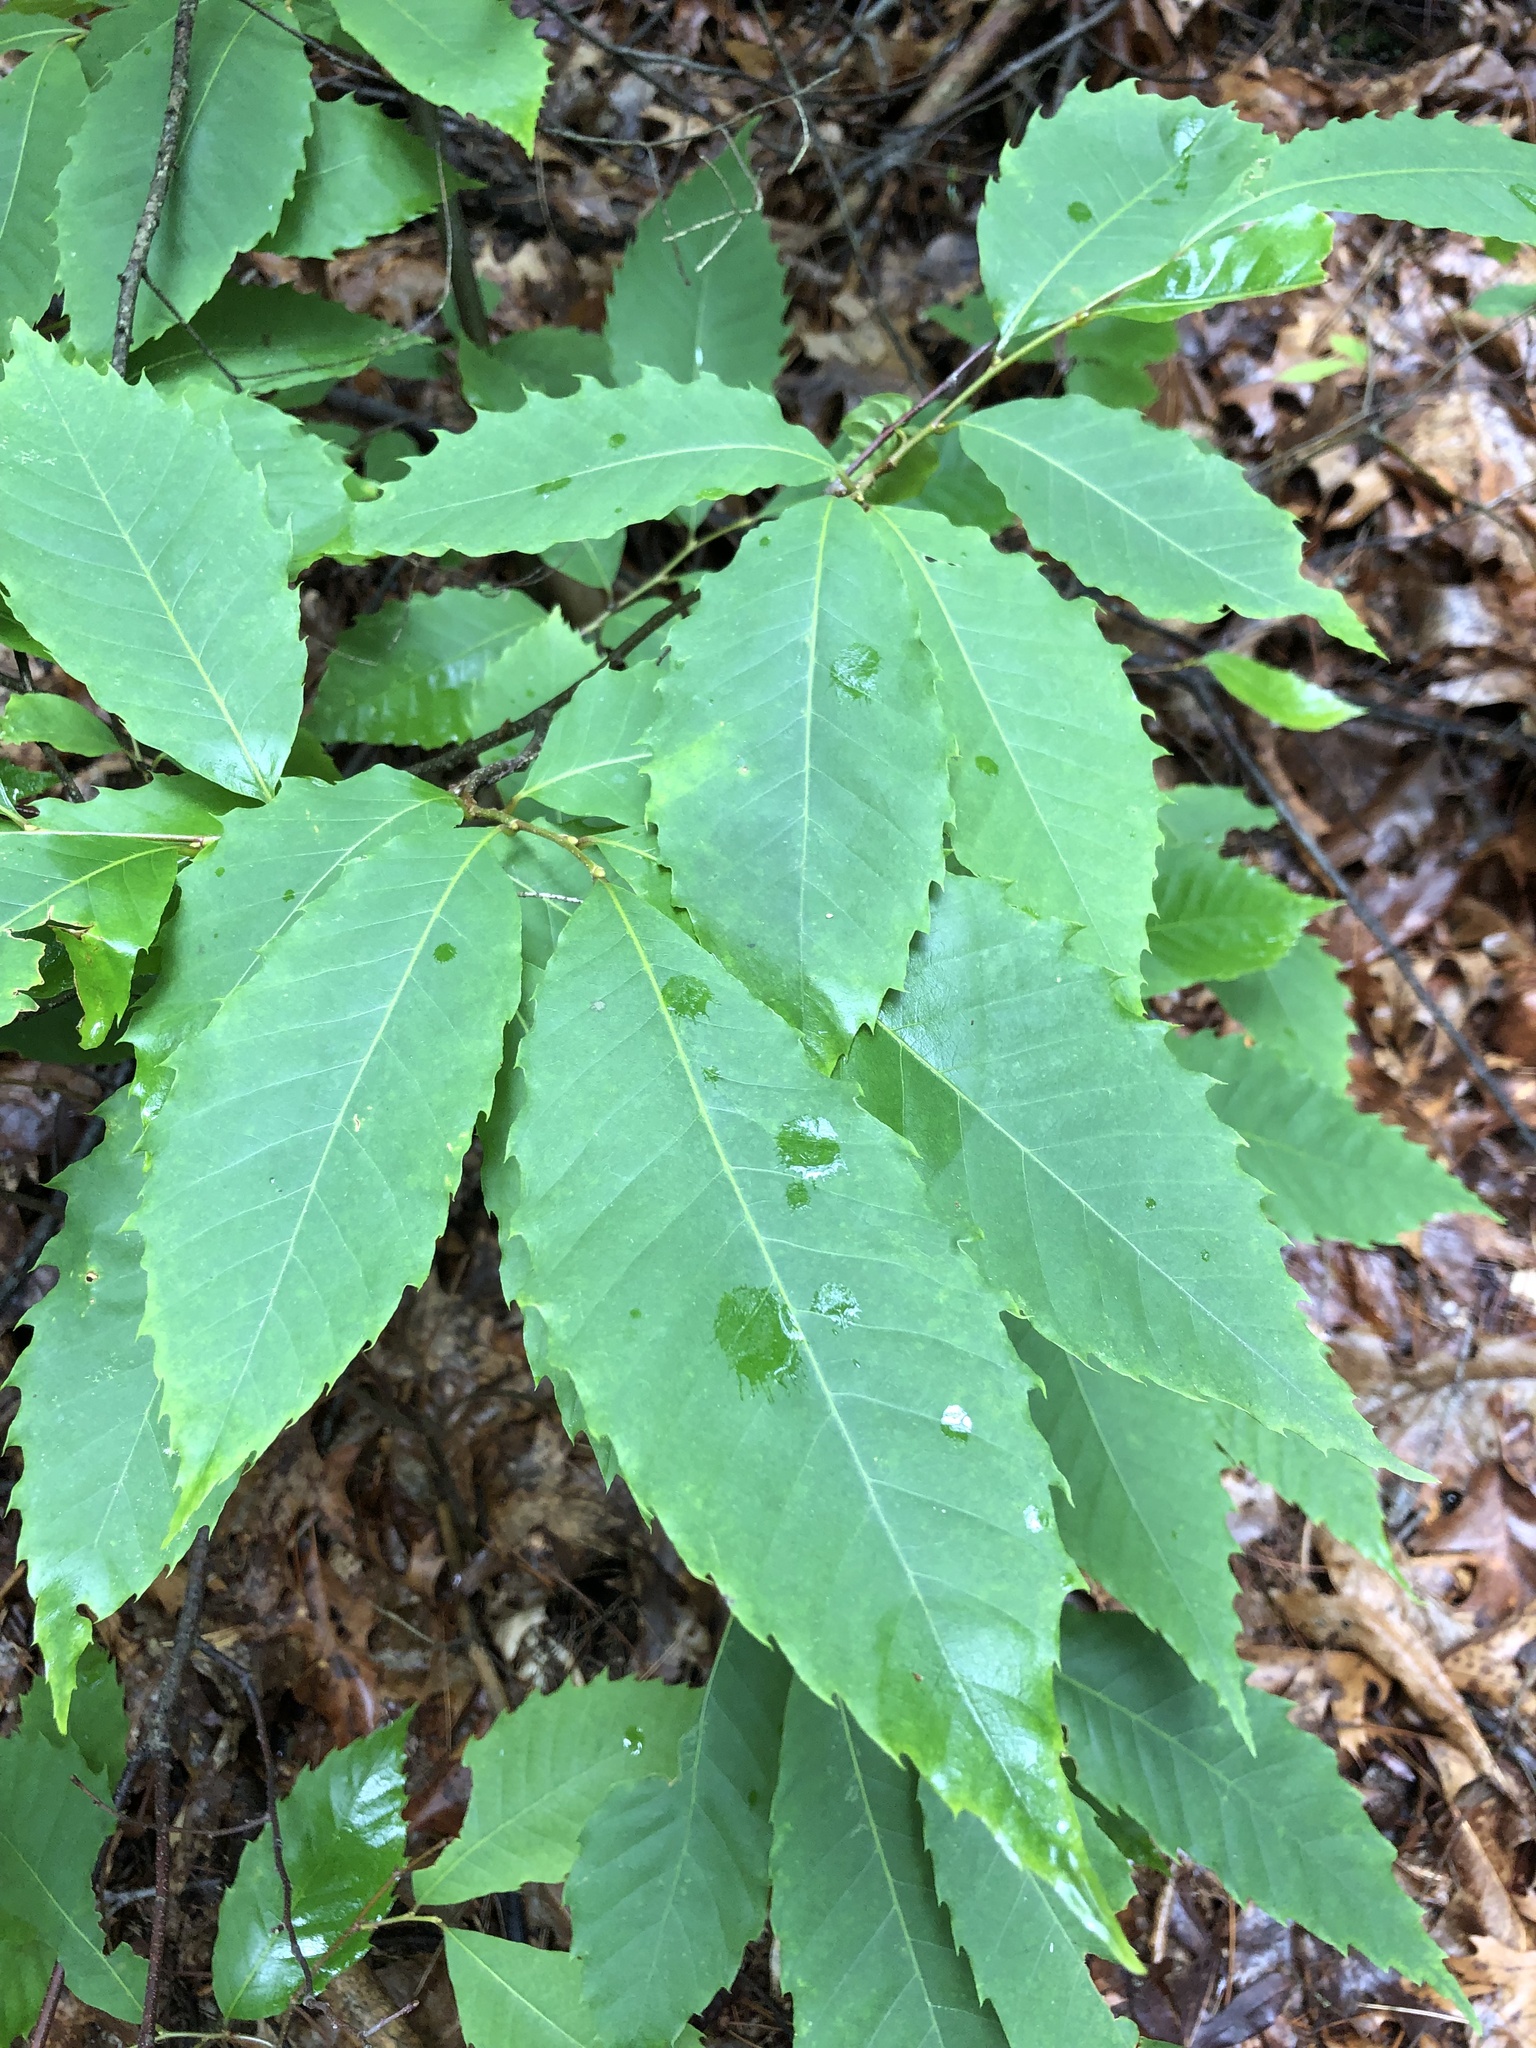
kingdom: Plantae
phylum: Tracheophyta
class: Magnoliopsida
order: Fagales
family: Fagaceae
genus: Castanea
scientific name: Castanea dentata
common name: American chestnut
